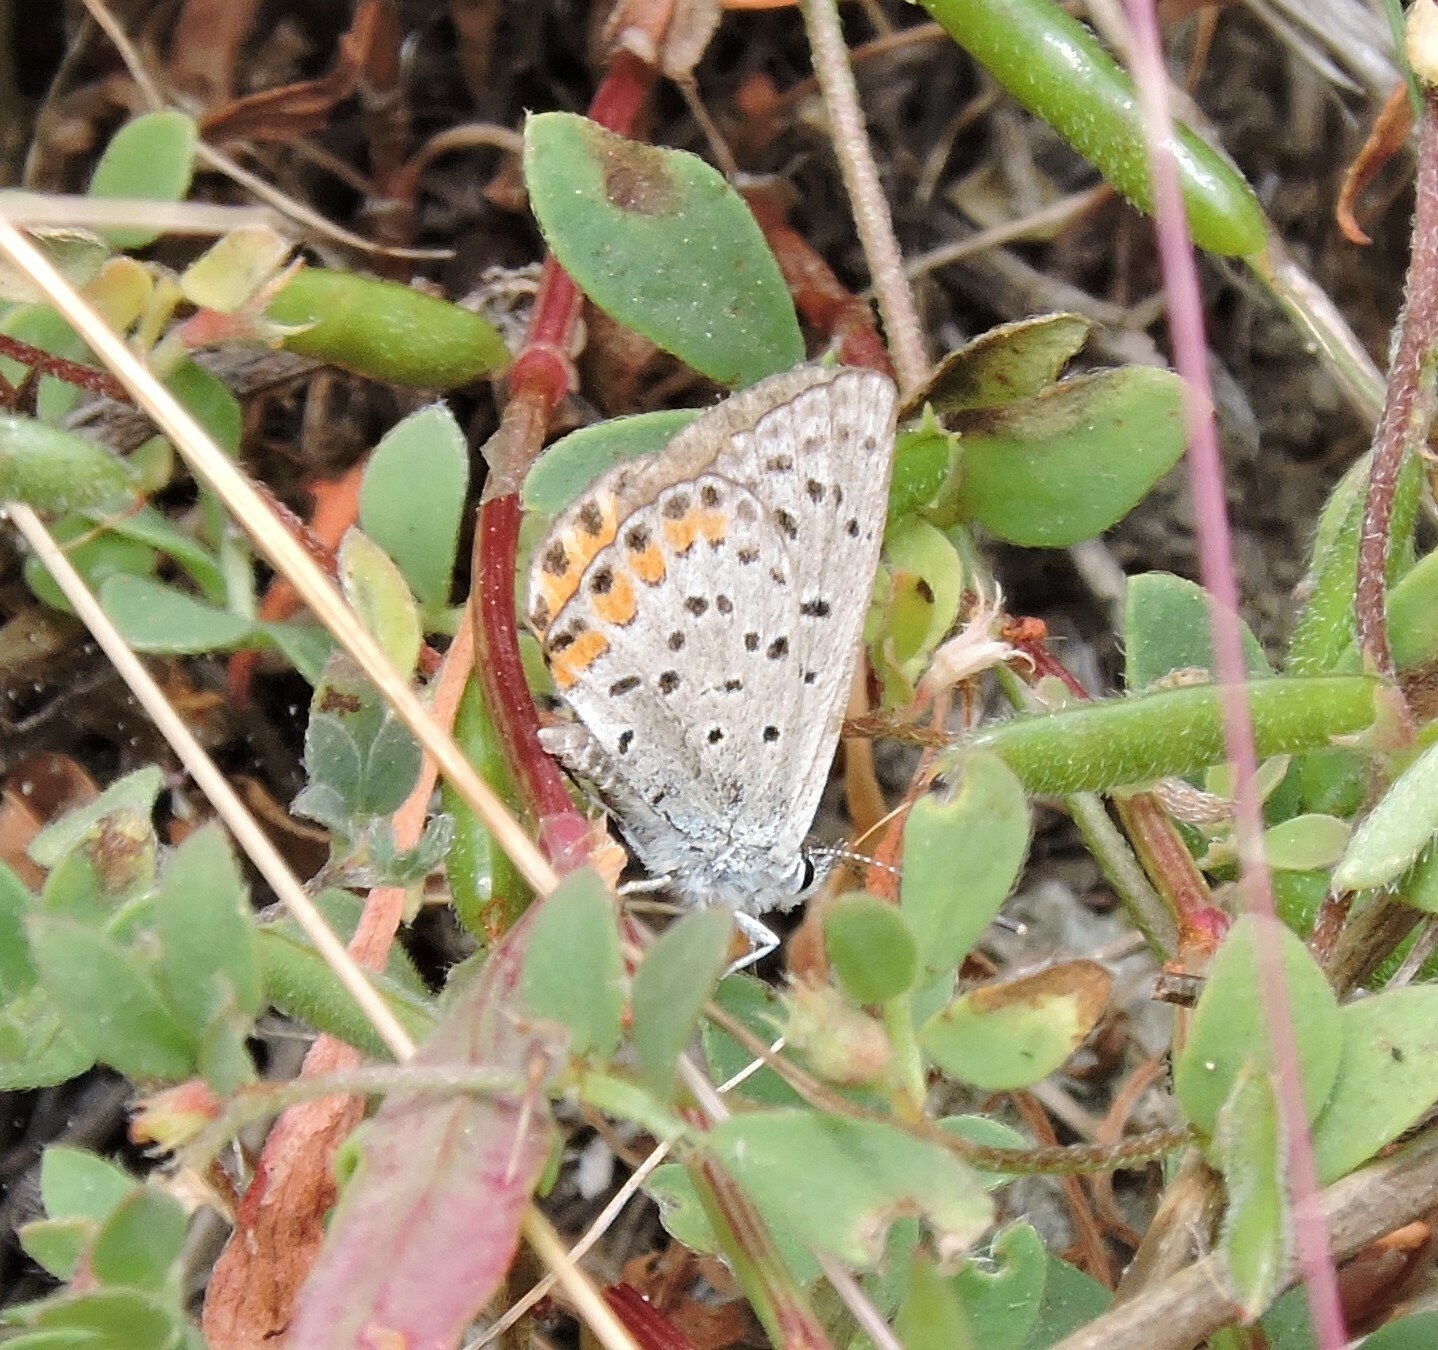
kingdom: Animalia
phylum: Arthropoda
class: Insecta
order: Lepidoptera
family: Lycaenidae
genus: Icaricia
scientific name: Icaricia acmon
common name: Acmon blue
